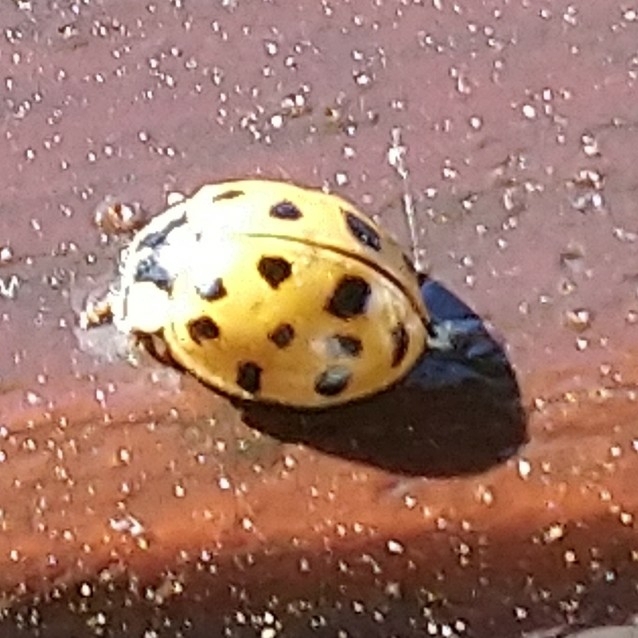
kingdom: Animalia
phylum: Arthropoda
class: Insecta
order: Coleoptera
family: Coccinellidae
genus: Harmonia
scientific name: Harmonia axyridis
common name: Harlequin ladybird
